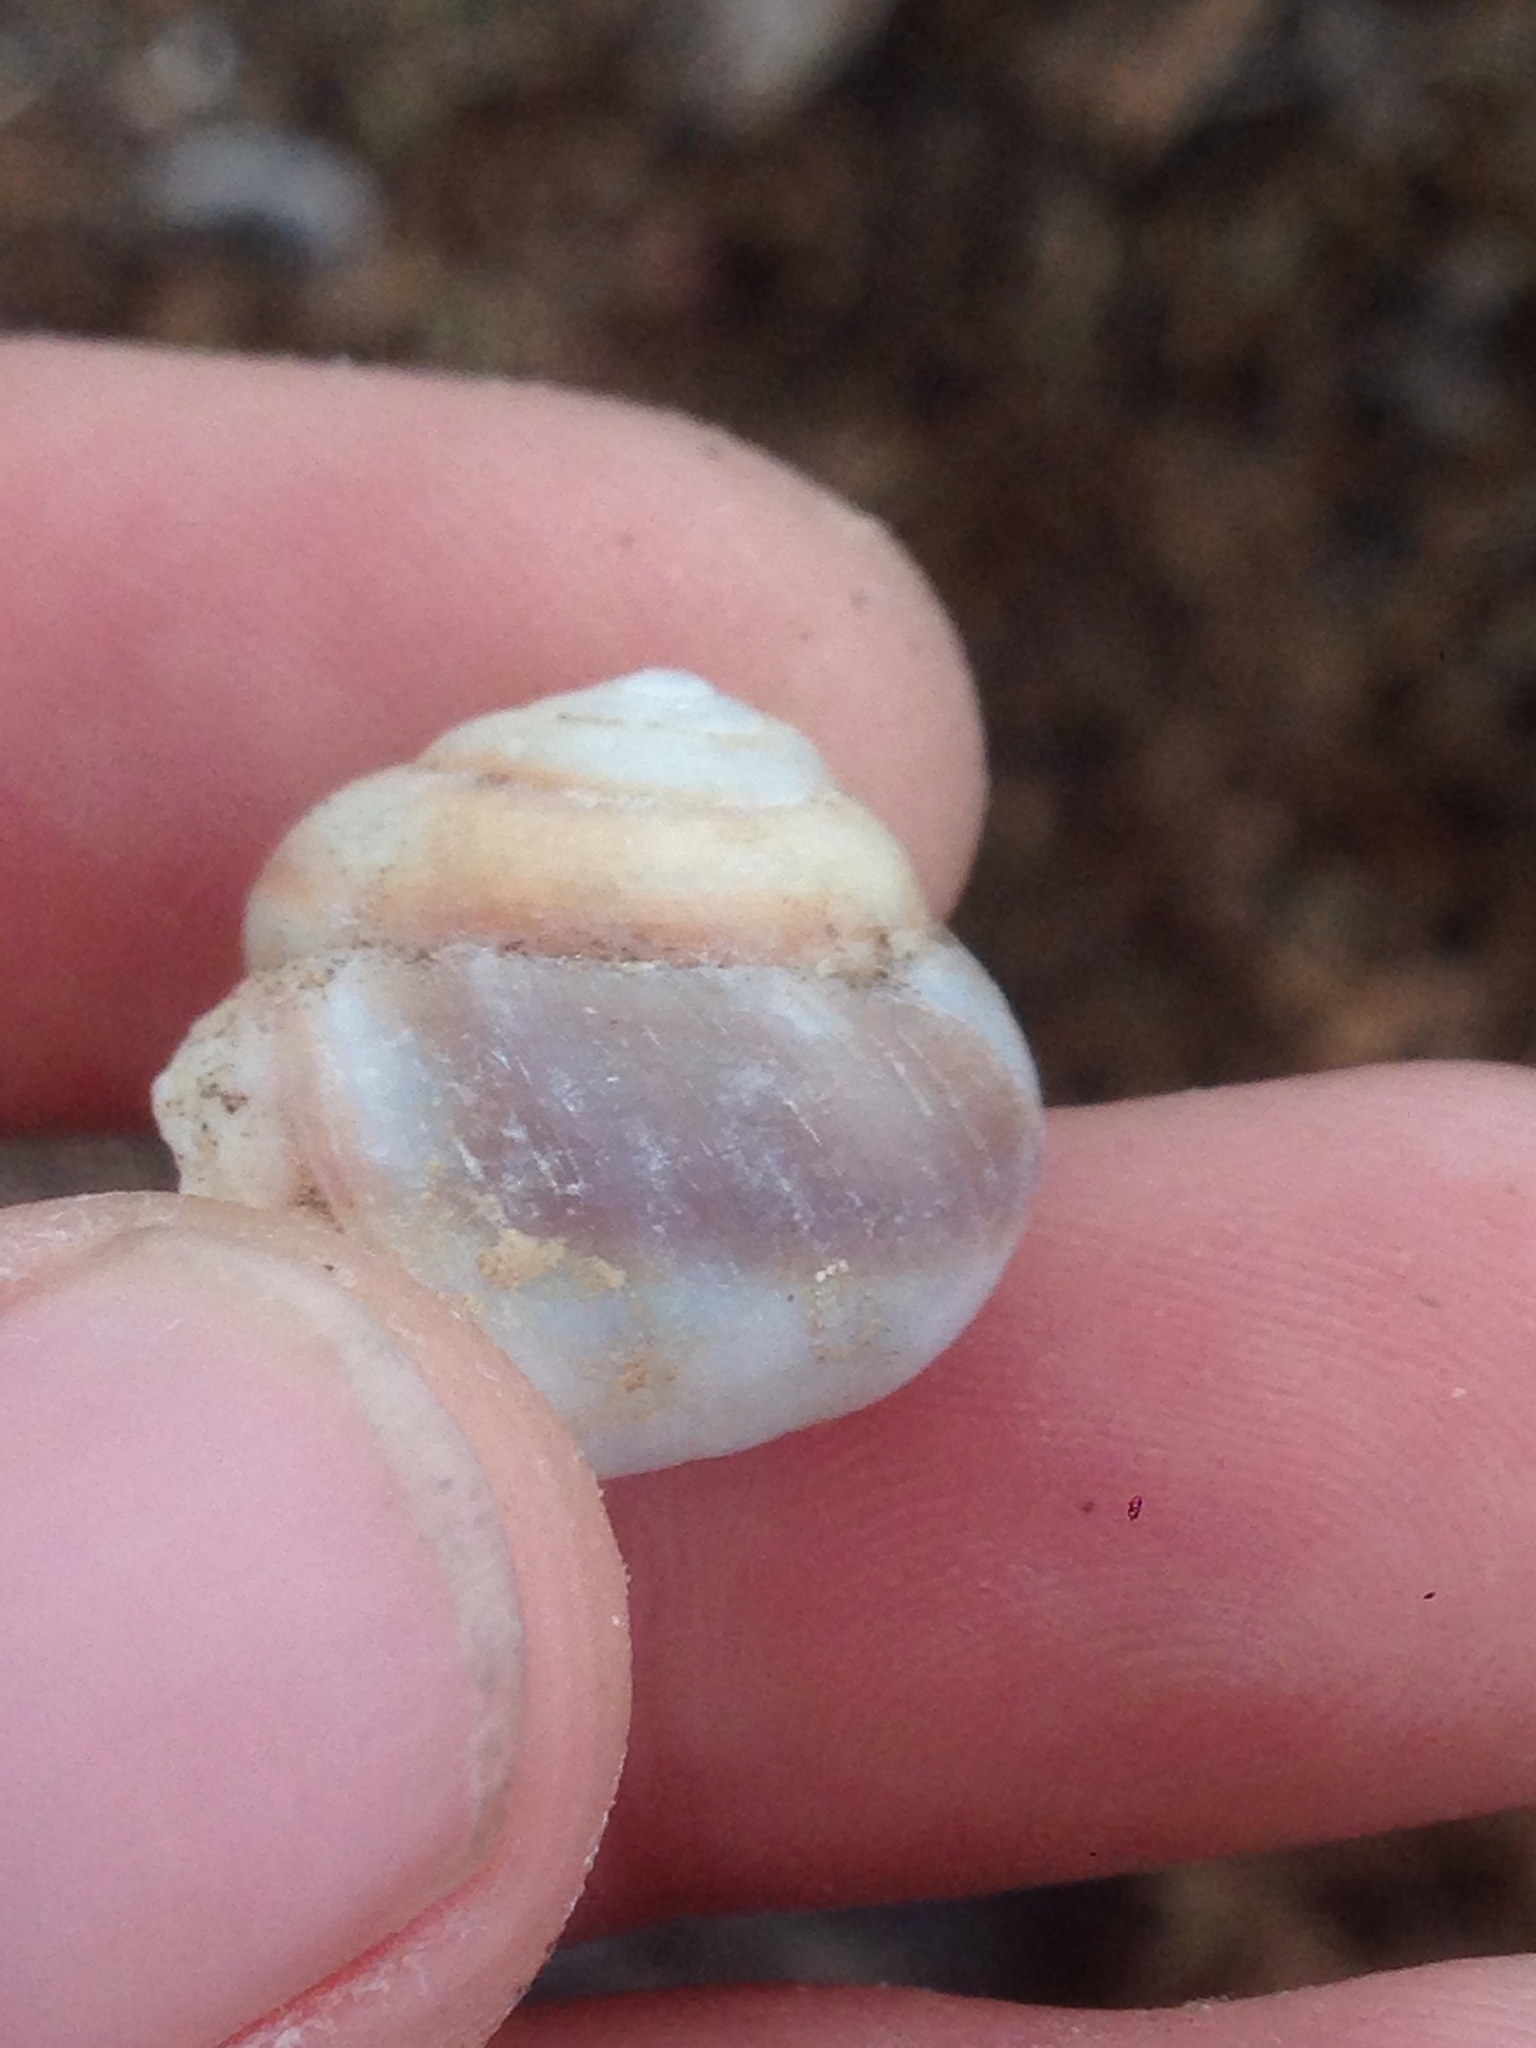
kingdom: Animalia
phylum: Mollusca
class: Gastropoda
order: Stylommatophora
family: Xanthonychidae
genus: Xerarionta
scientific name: Xerarionta tryoni
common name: Bicolor cactus snail
